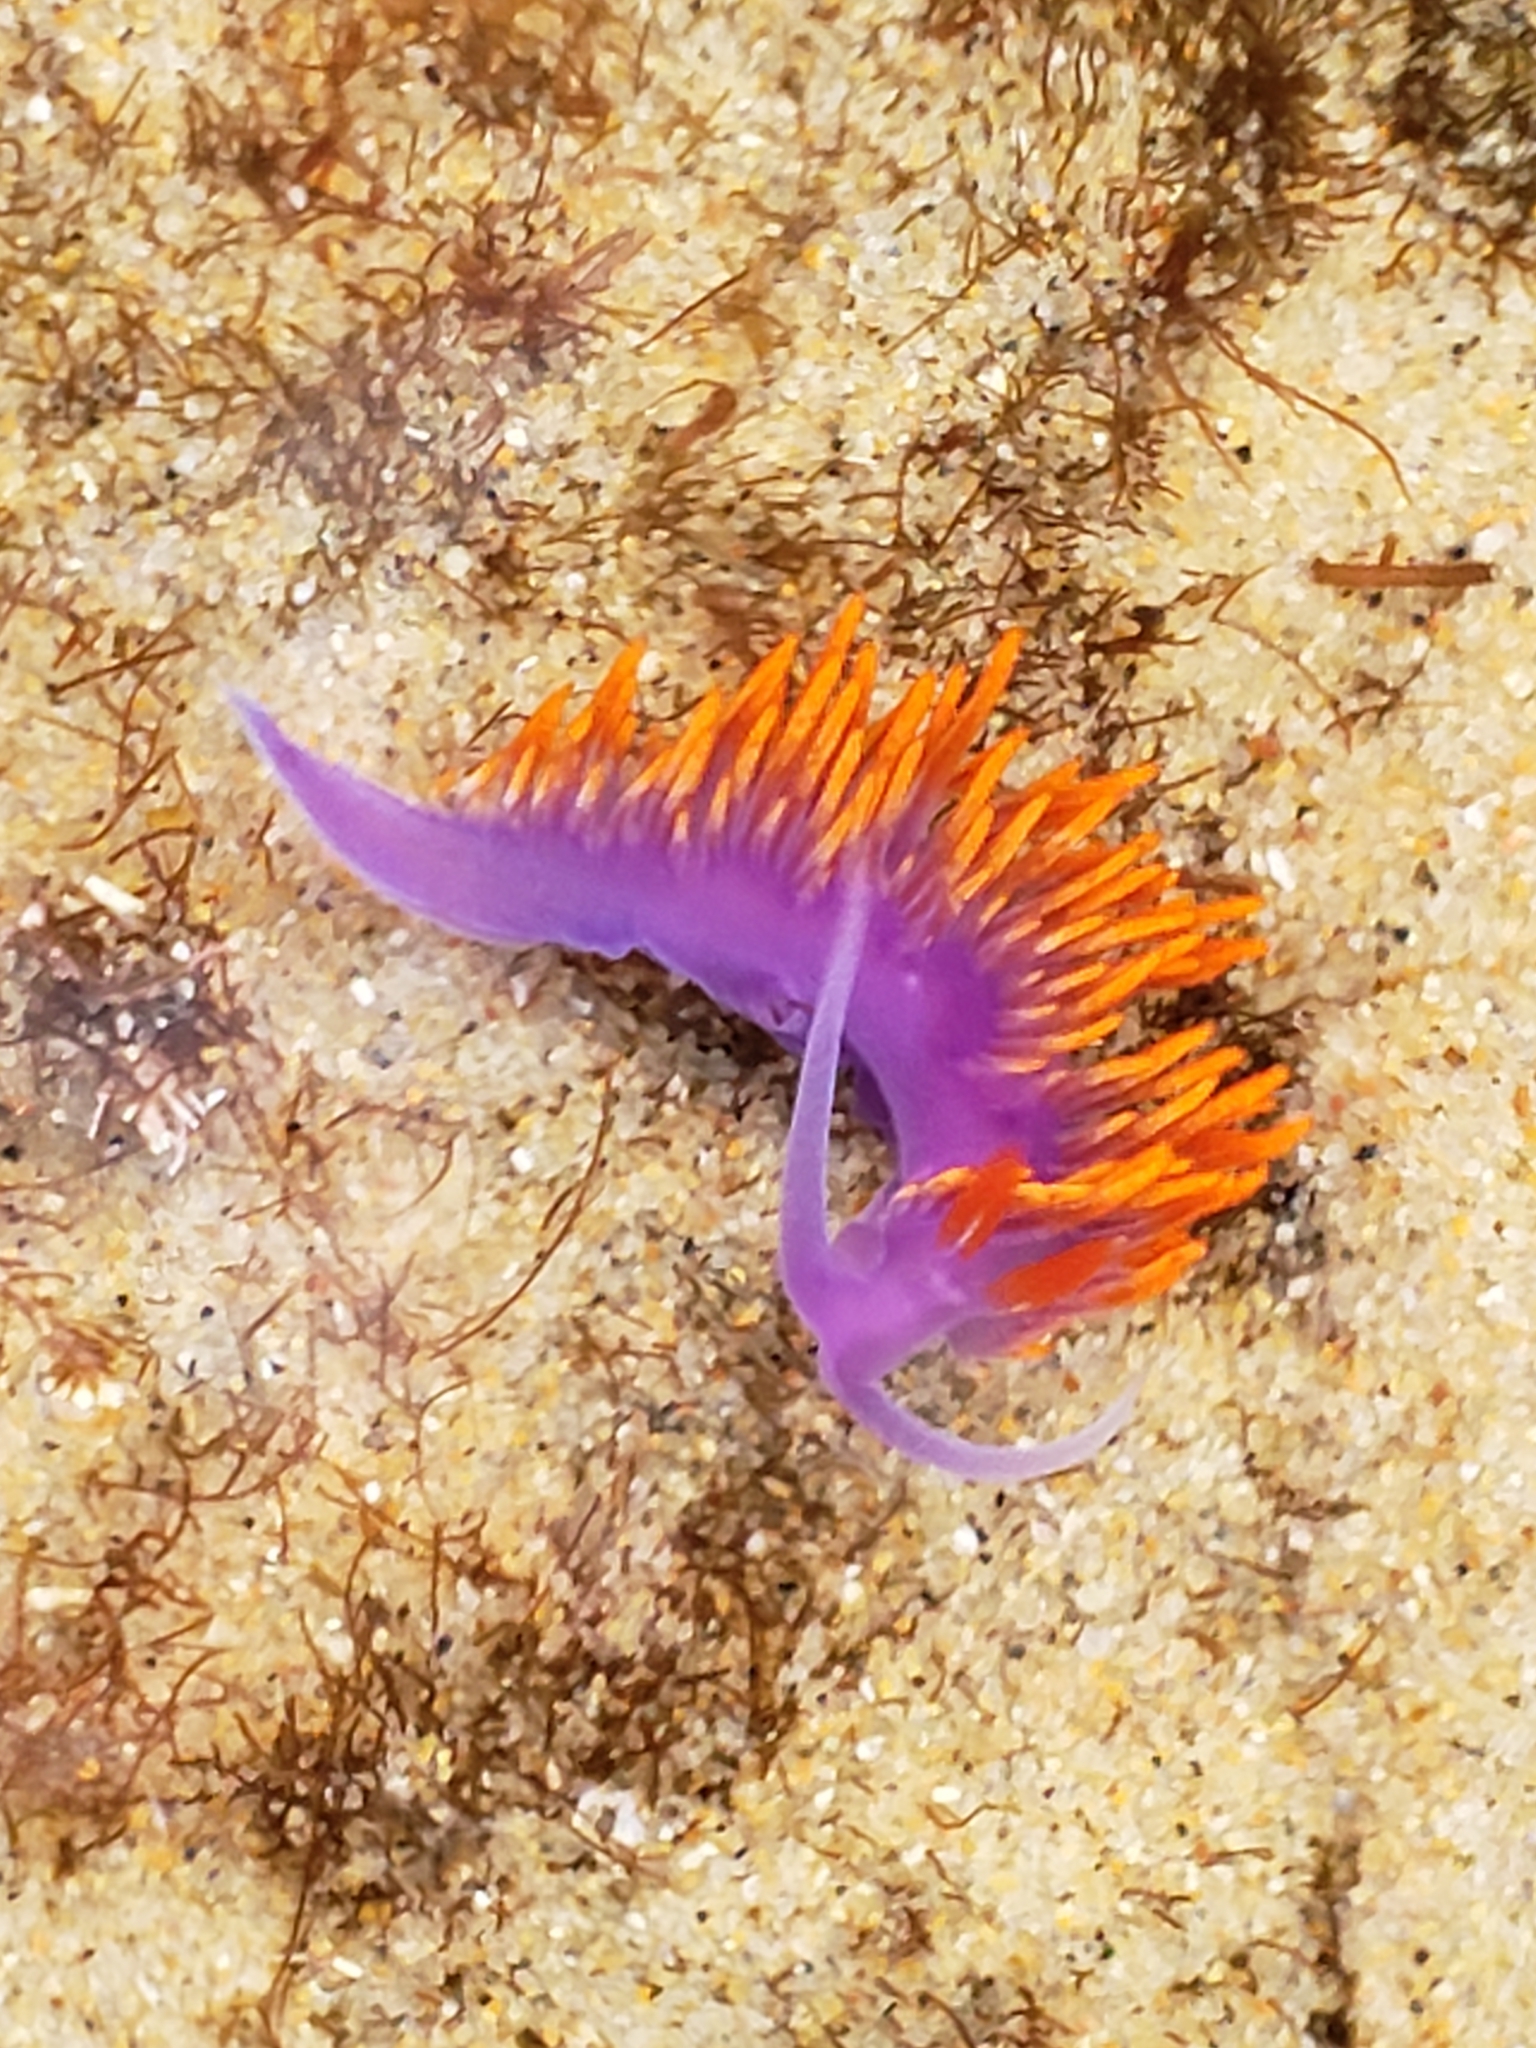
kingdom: Animalia
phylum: Mollusca
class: Gastropoda
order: Nudibranchia
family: Flabellinopsidae
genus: Flabellinopsis
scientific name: Flabellinopsis iodinea
